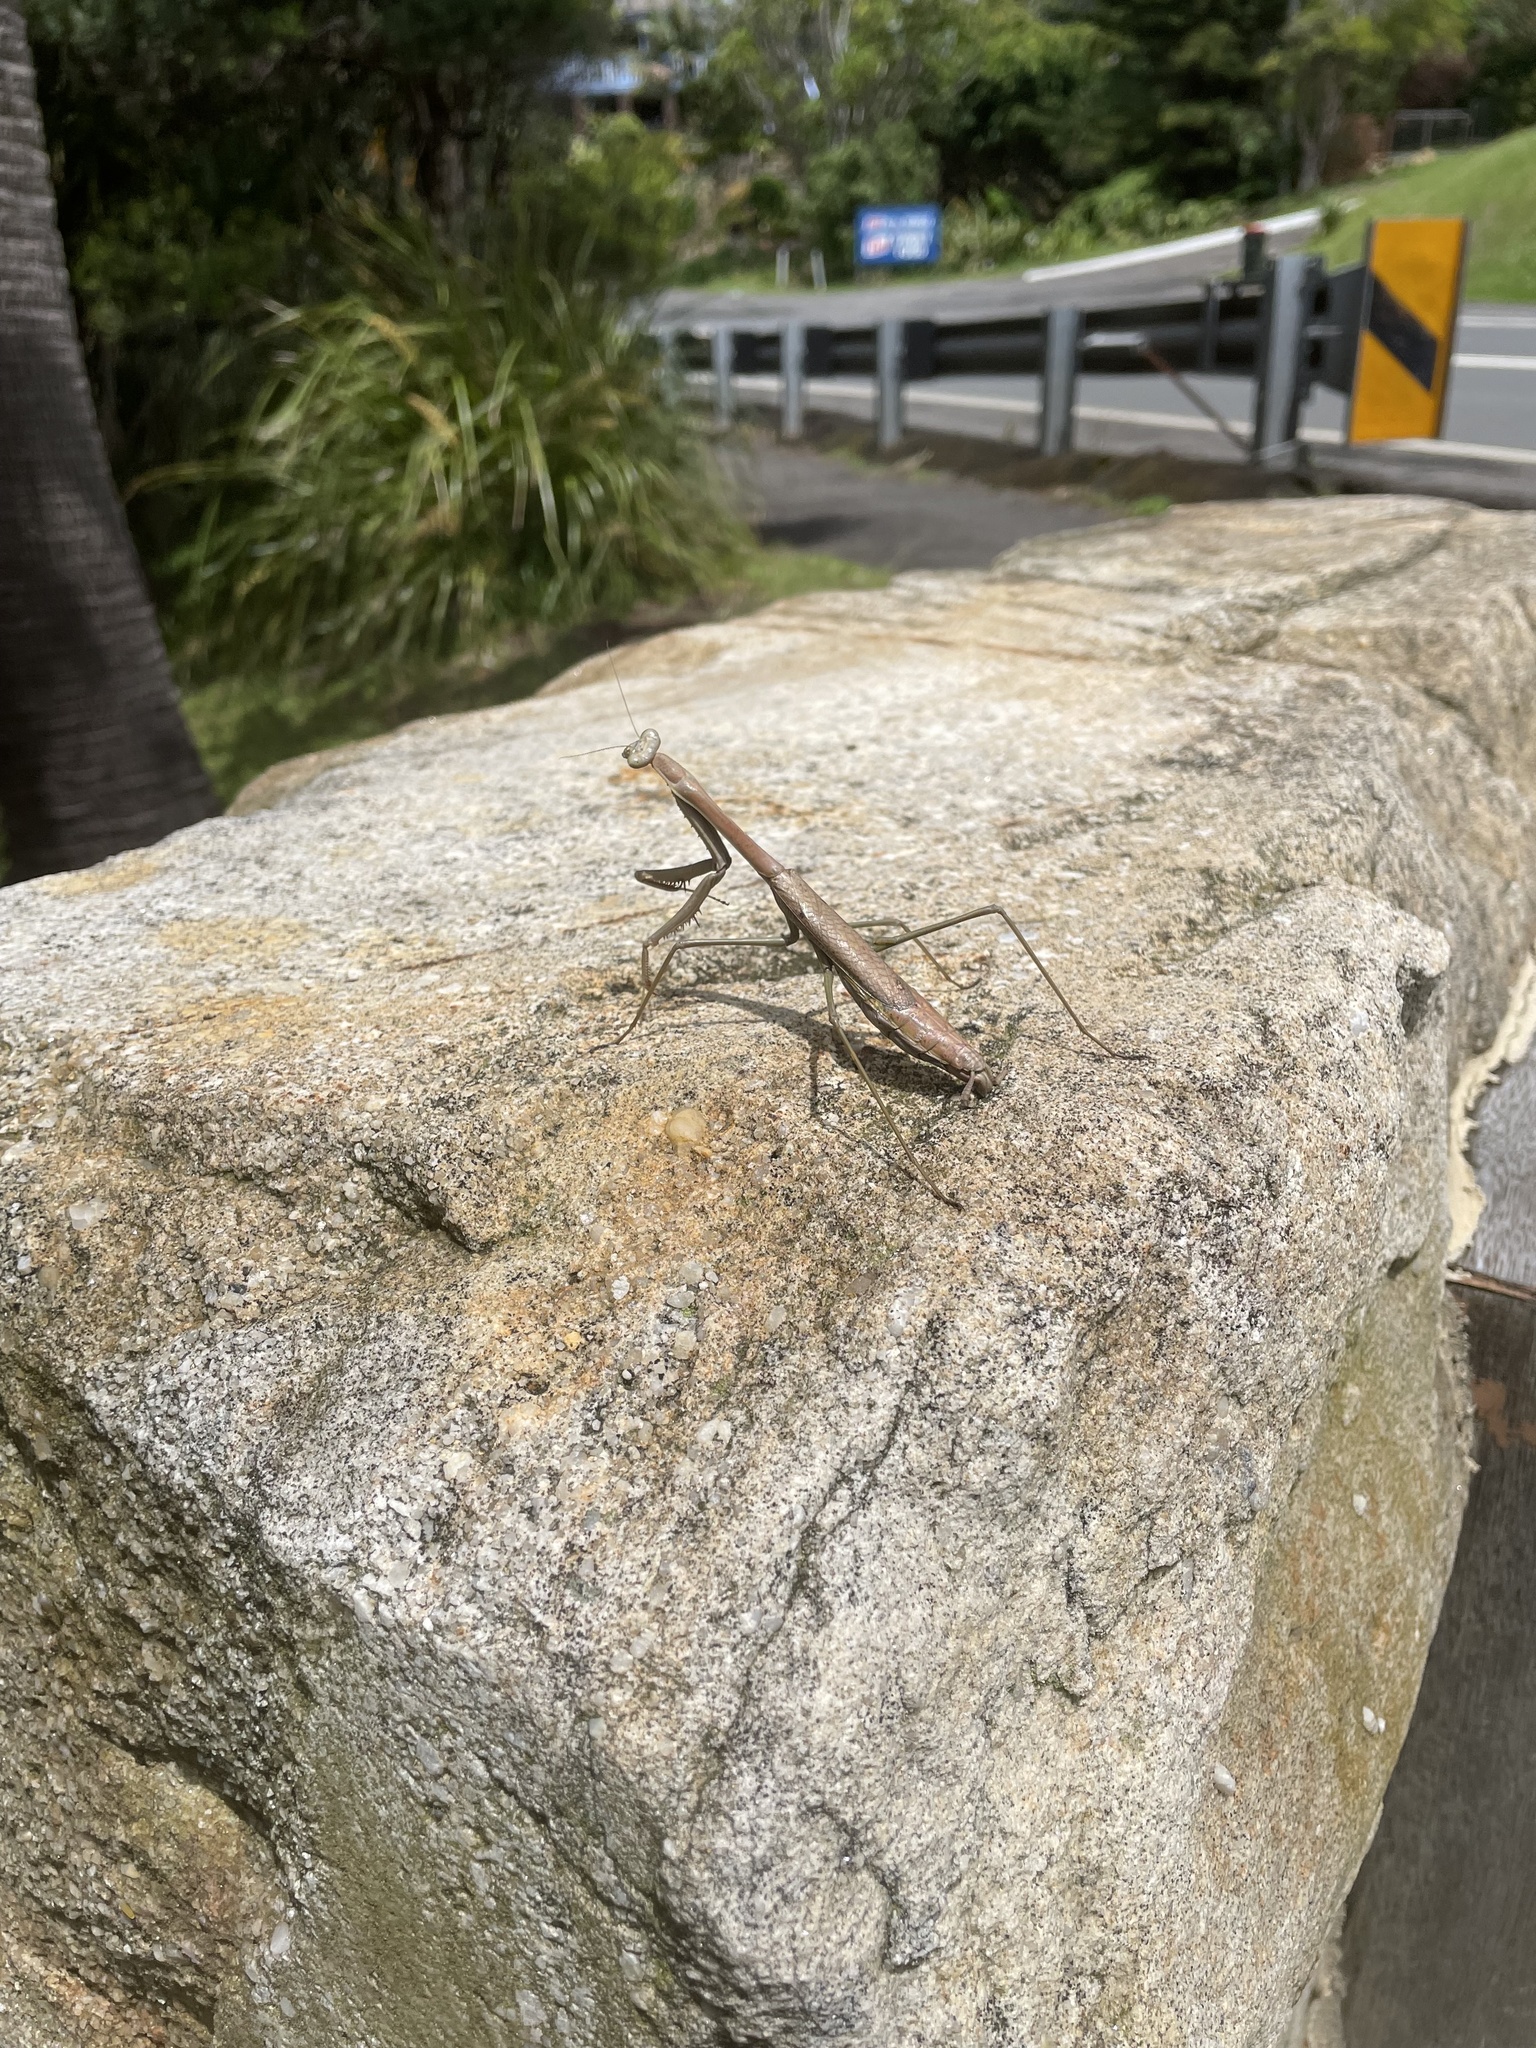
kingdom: Animalia
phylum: Arthropoda
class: Insecta
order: Mantodea
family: Mantidae
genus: Archimantis
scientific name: Archimantis latistyla
